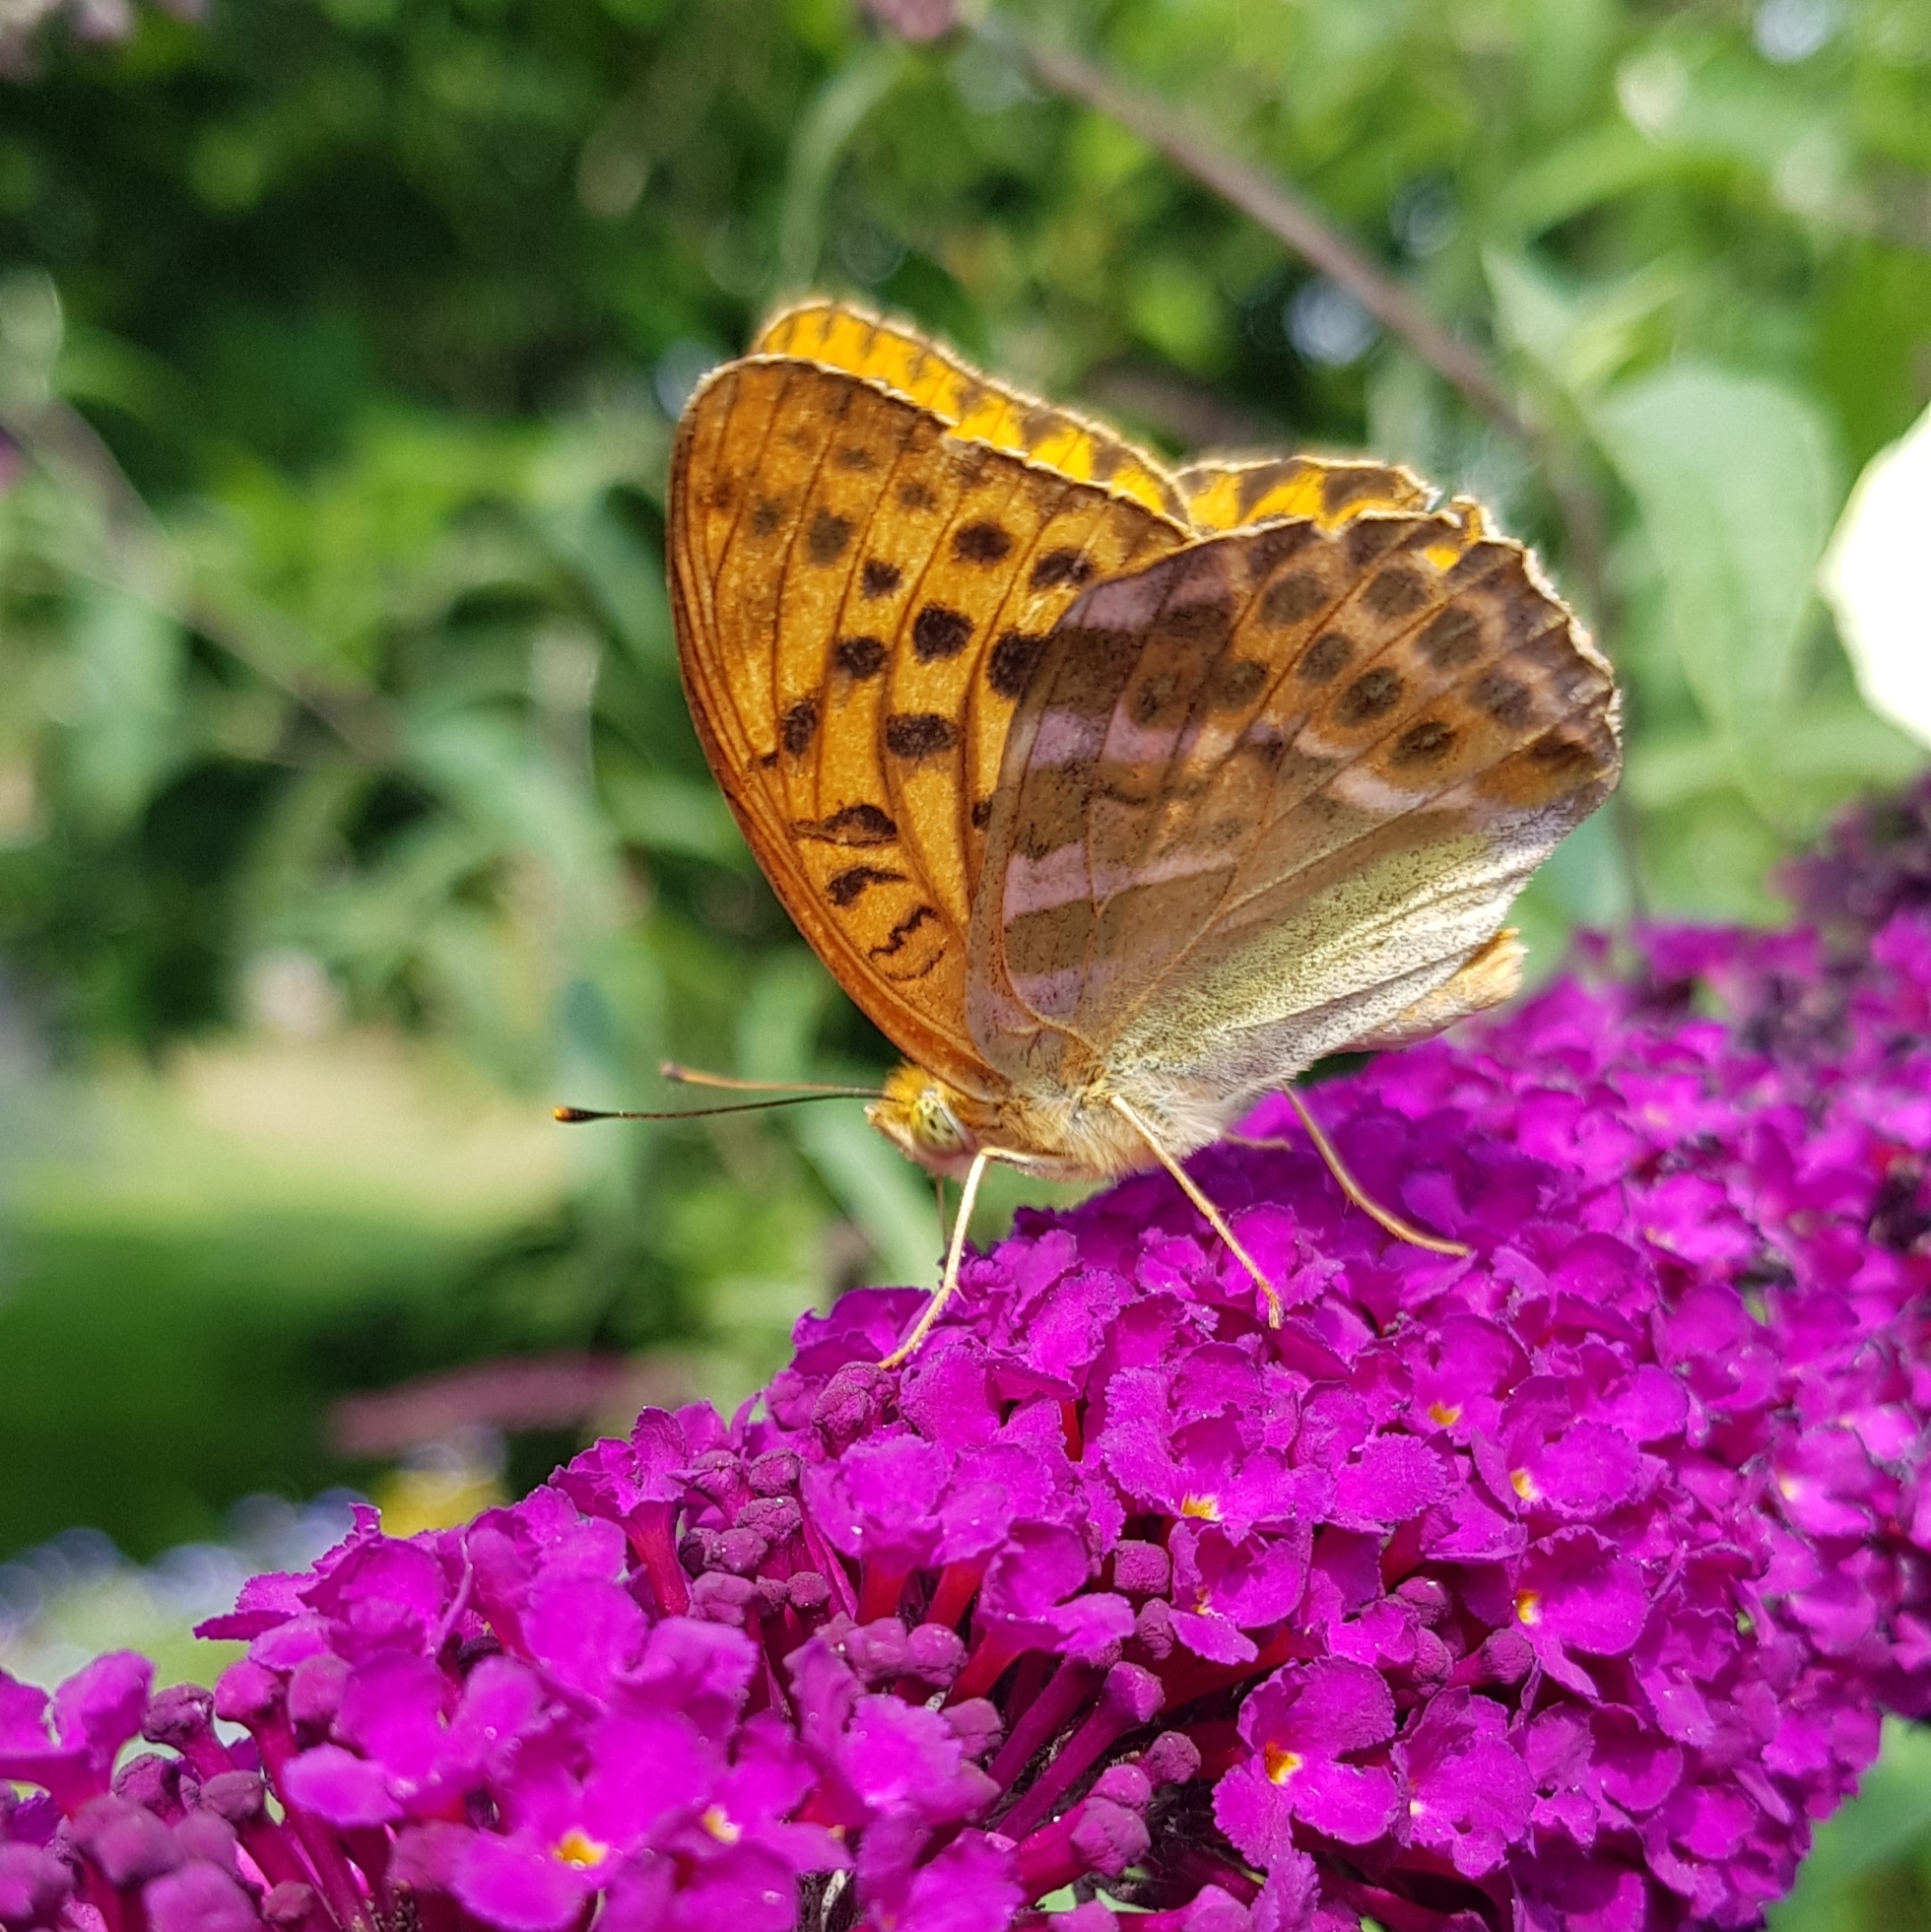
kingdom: Animalia
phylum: Arthropoda
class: Insecta
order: Lepidoptera
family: Nymphalidae
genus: Argynnis
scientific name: Argynnis paphia
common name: Silver-washed fritillary
